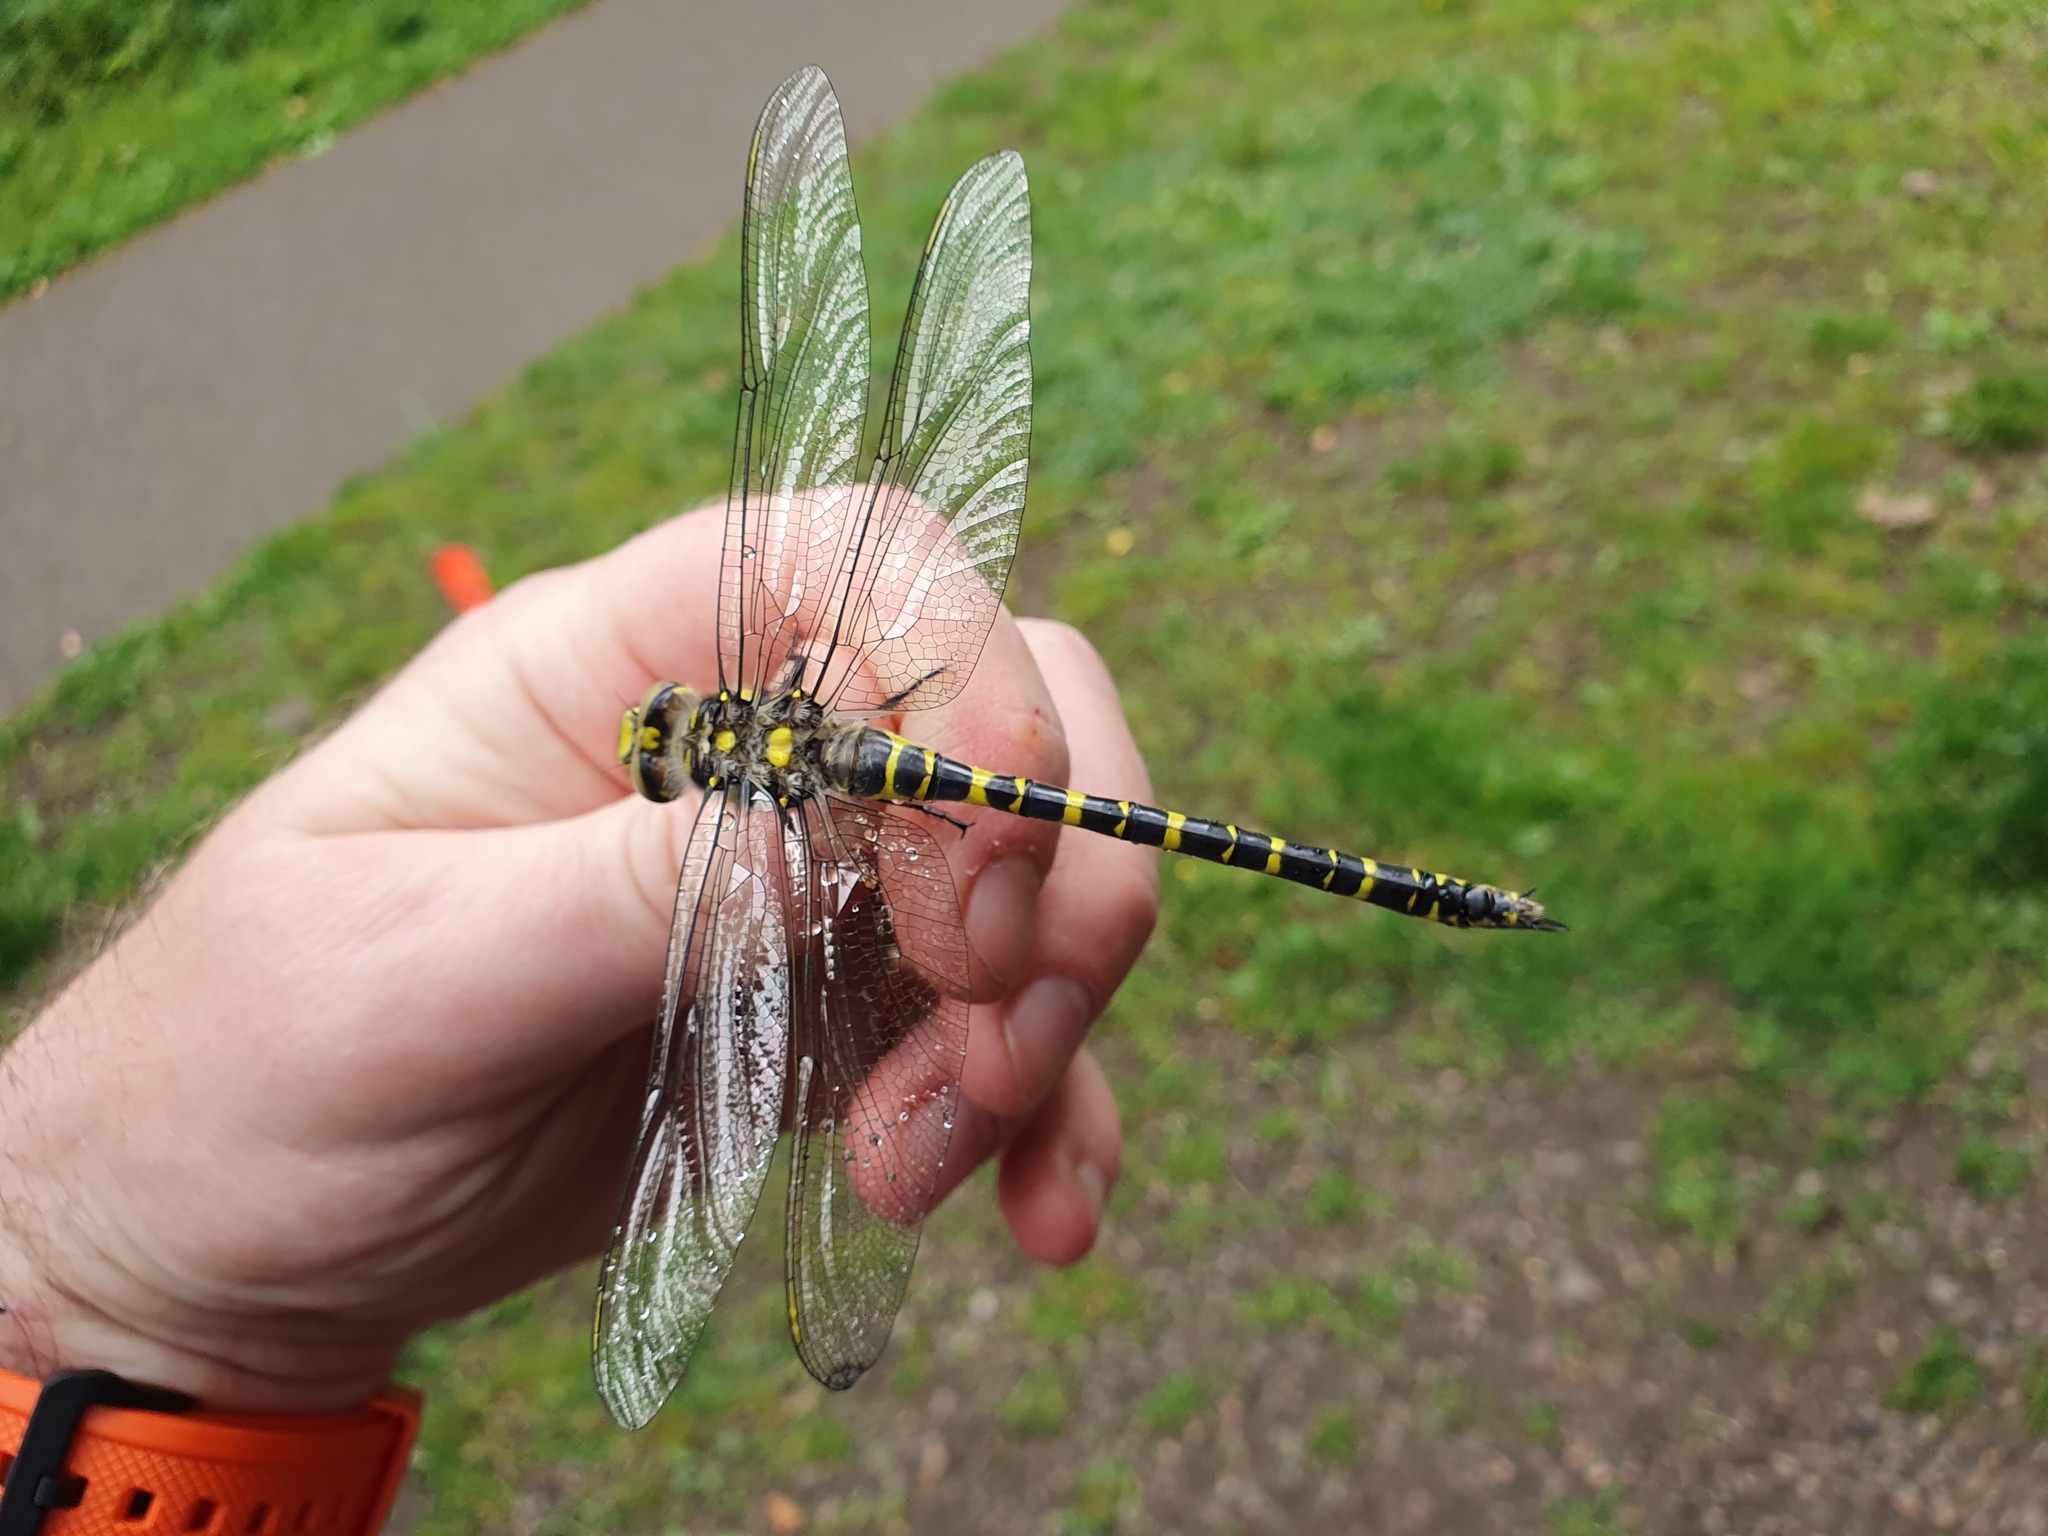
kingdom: Animalia
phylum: Arthropoda
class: Insecta
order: Odonata
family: Cordulegastridae
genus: Cordulegaster
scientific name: Cordulegaster boltonii
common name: Golden-ringed dragonfly
